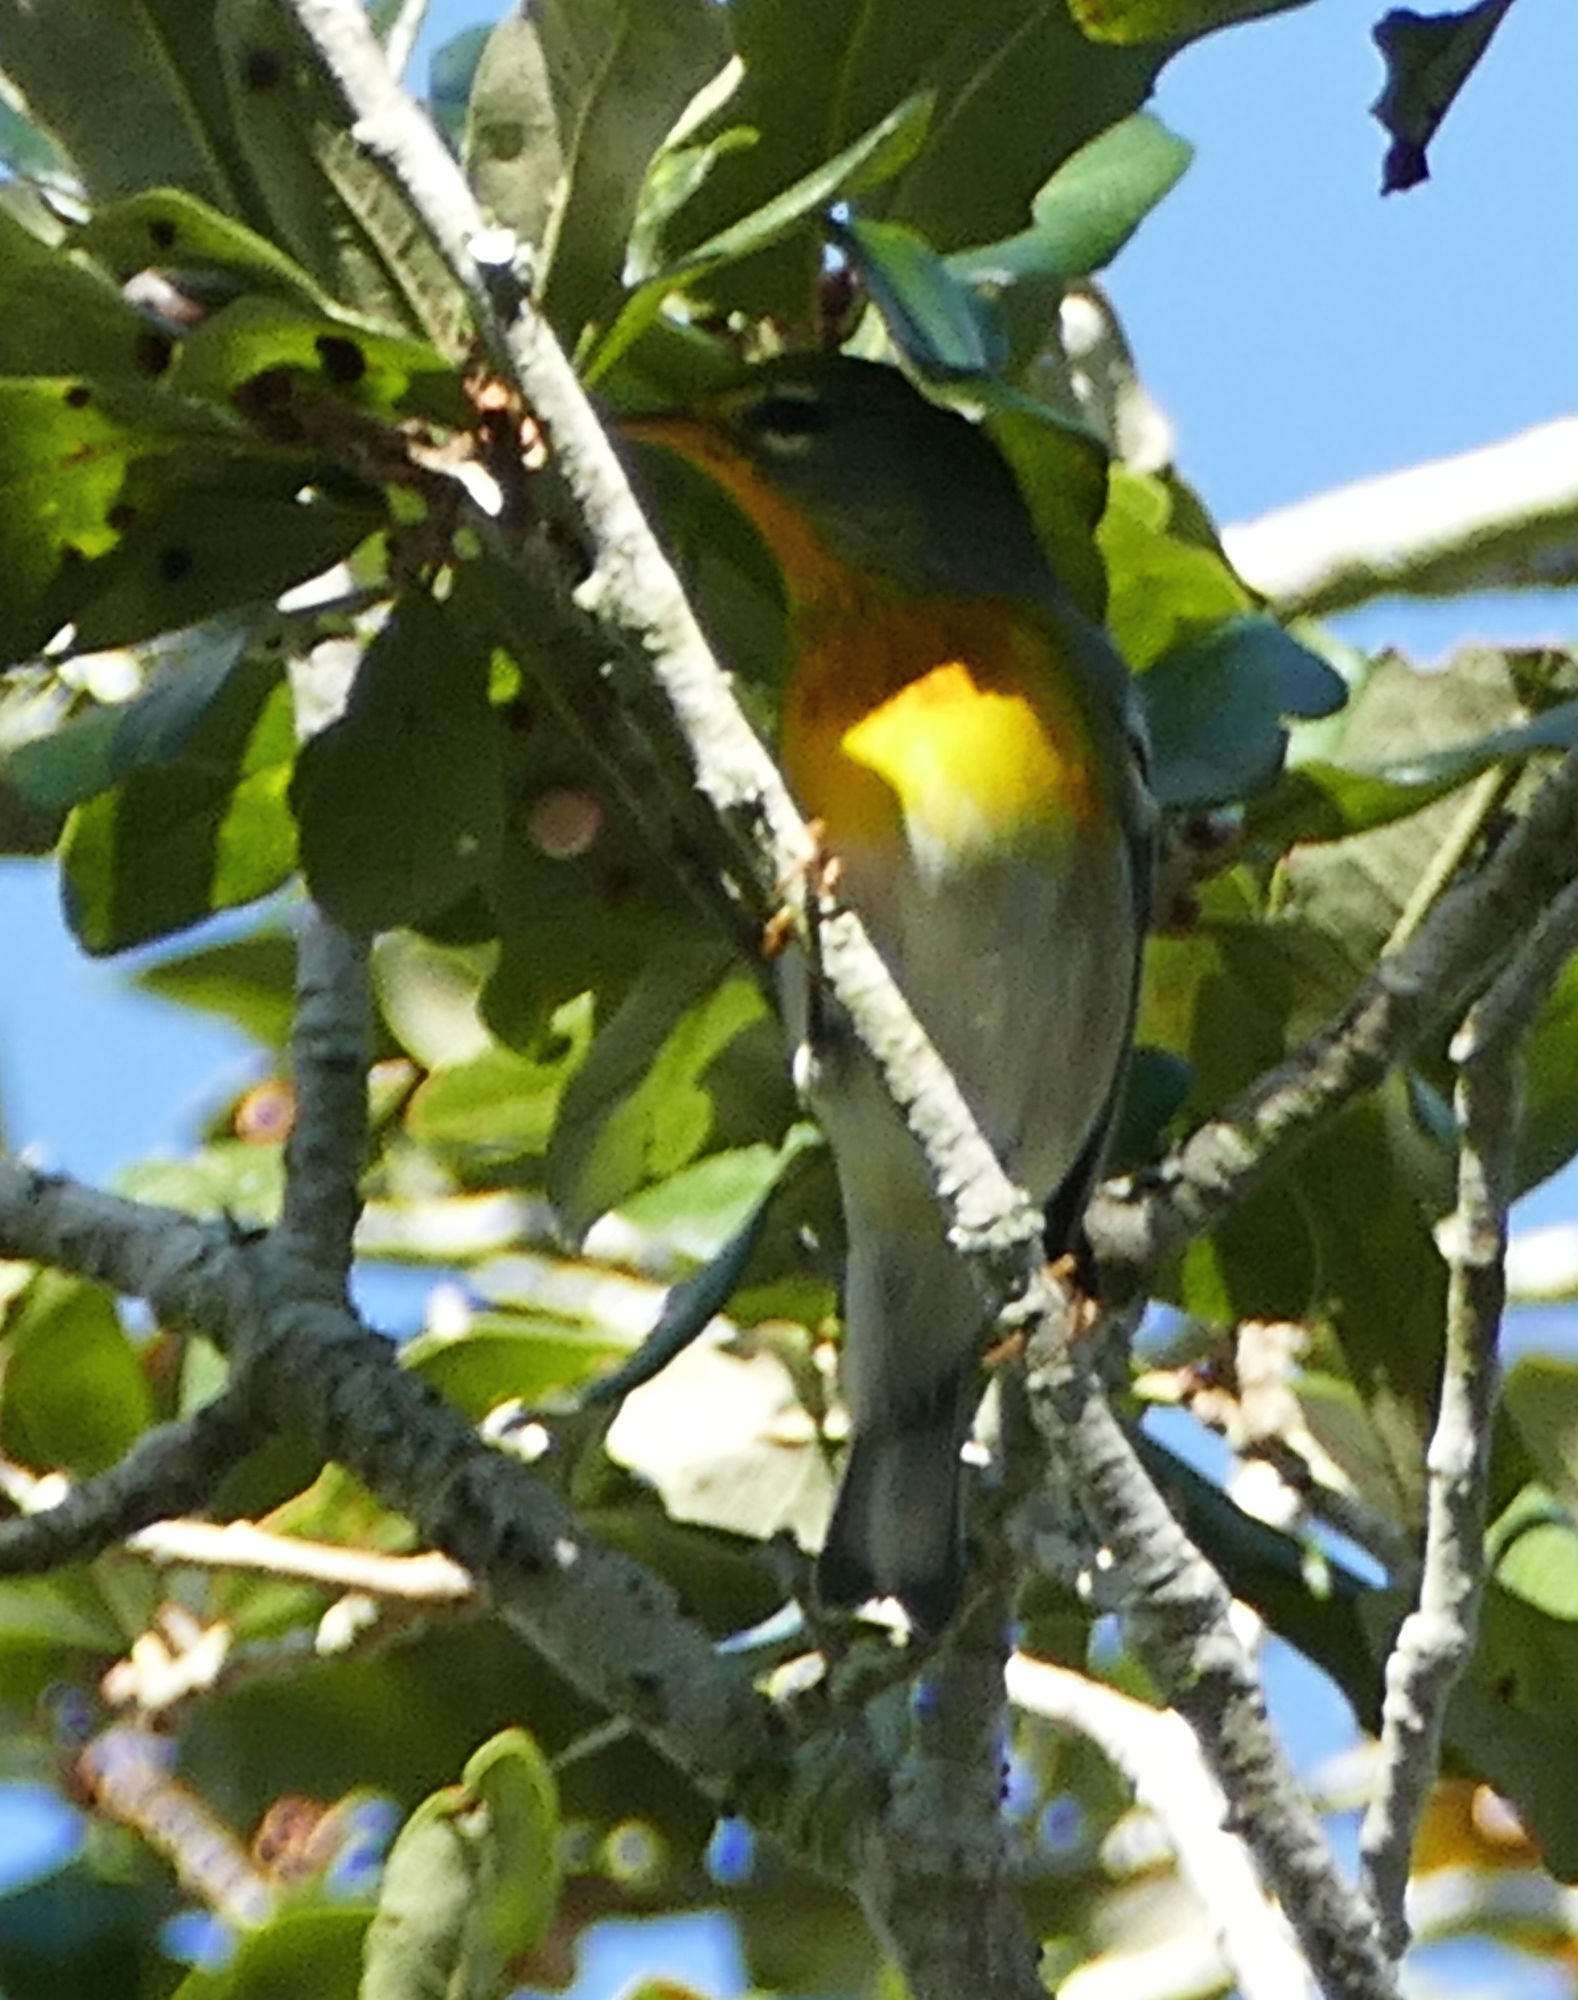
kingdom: Animalia
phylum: Chordata
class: Aves
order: Passeriformes
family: Parulidae
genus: Setophaga
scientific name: Setophaga americana
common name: Northern parula
